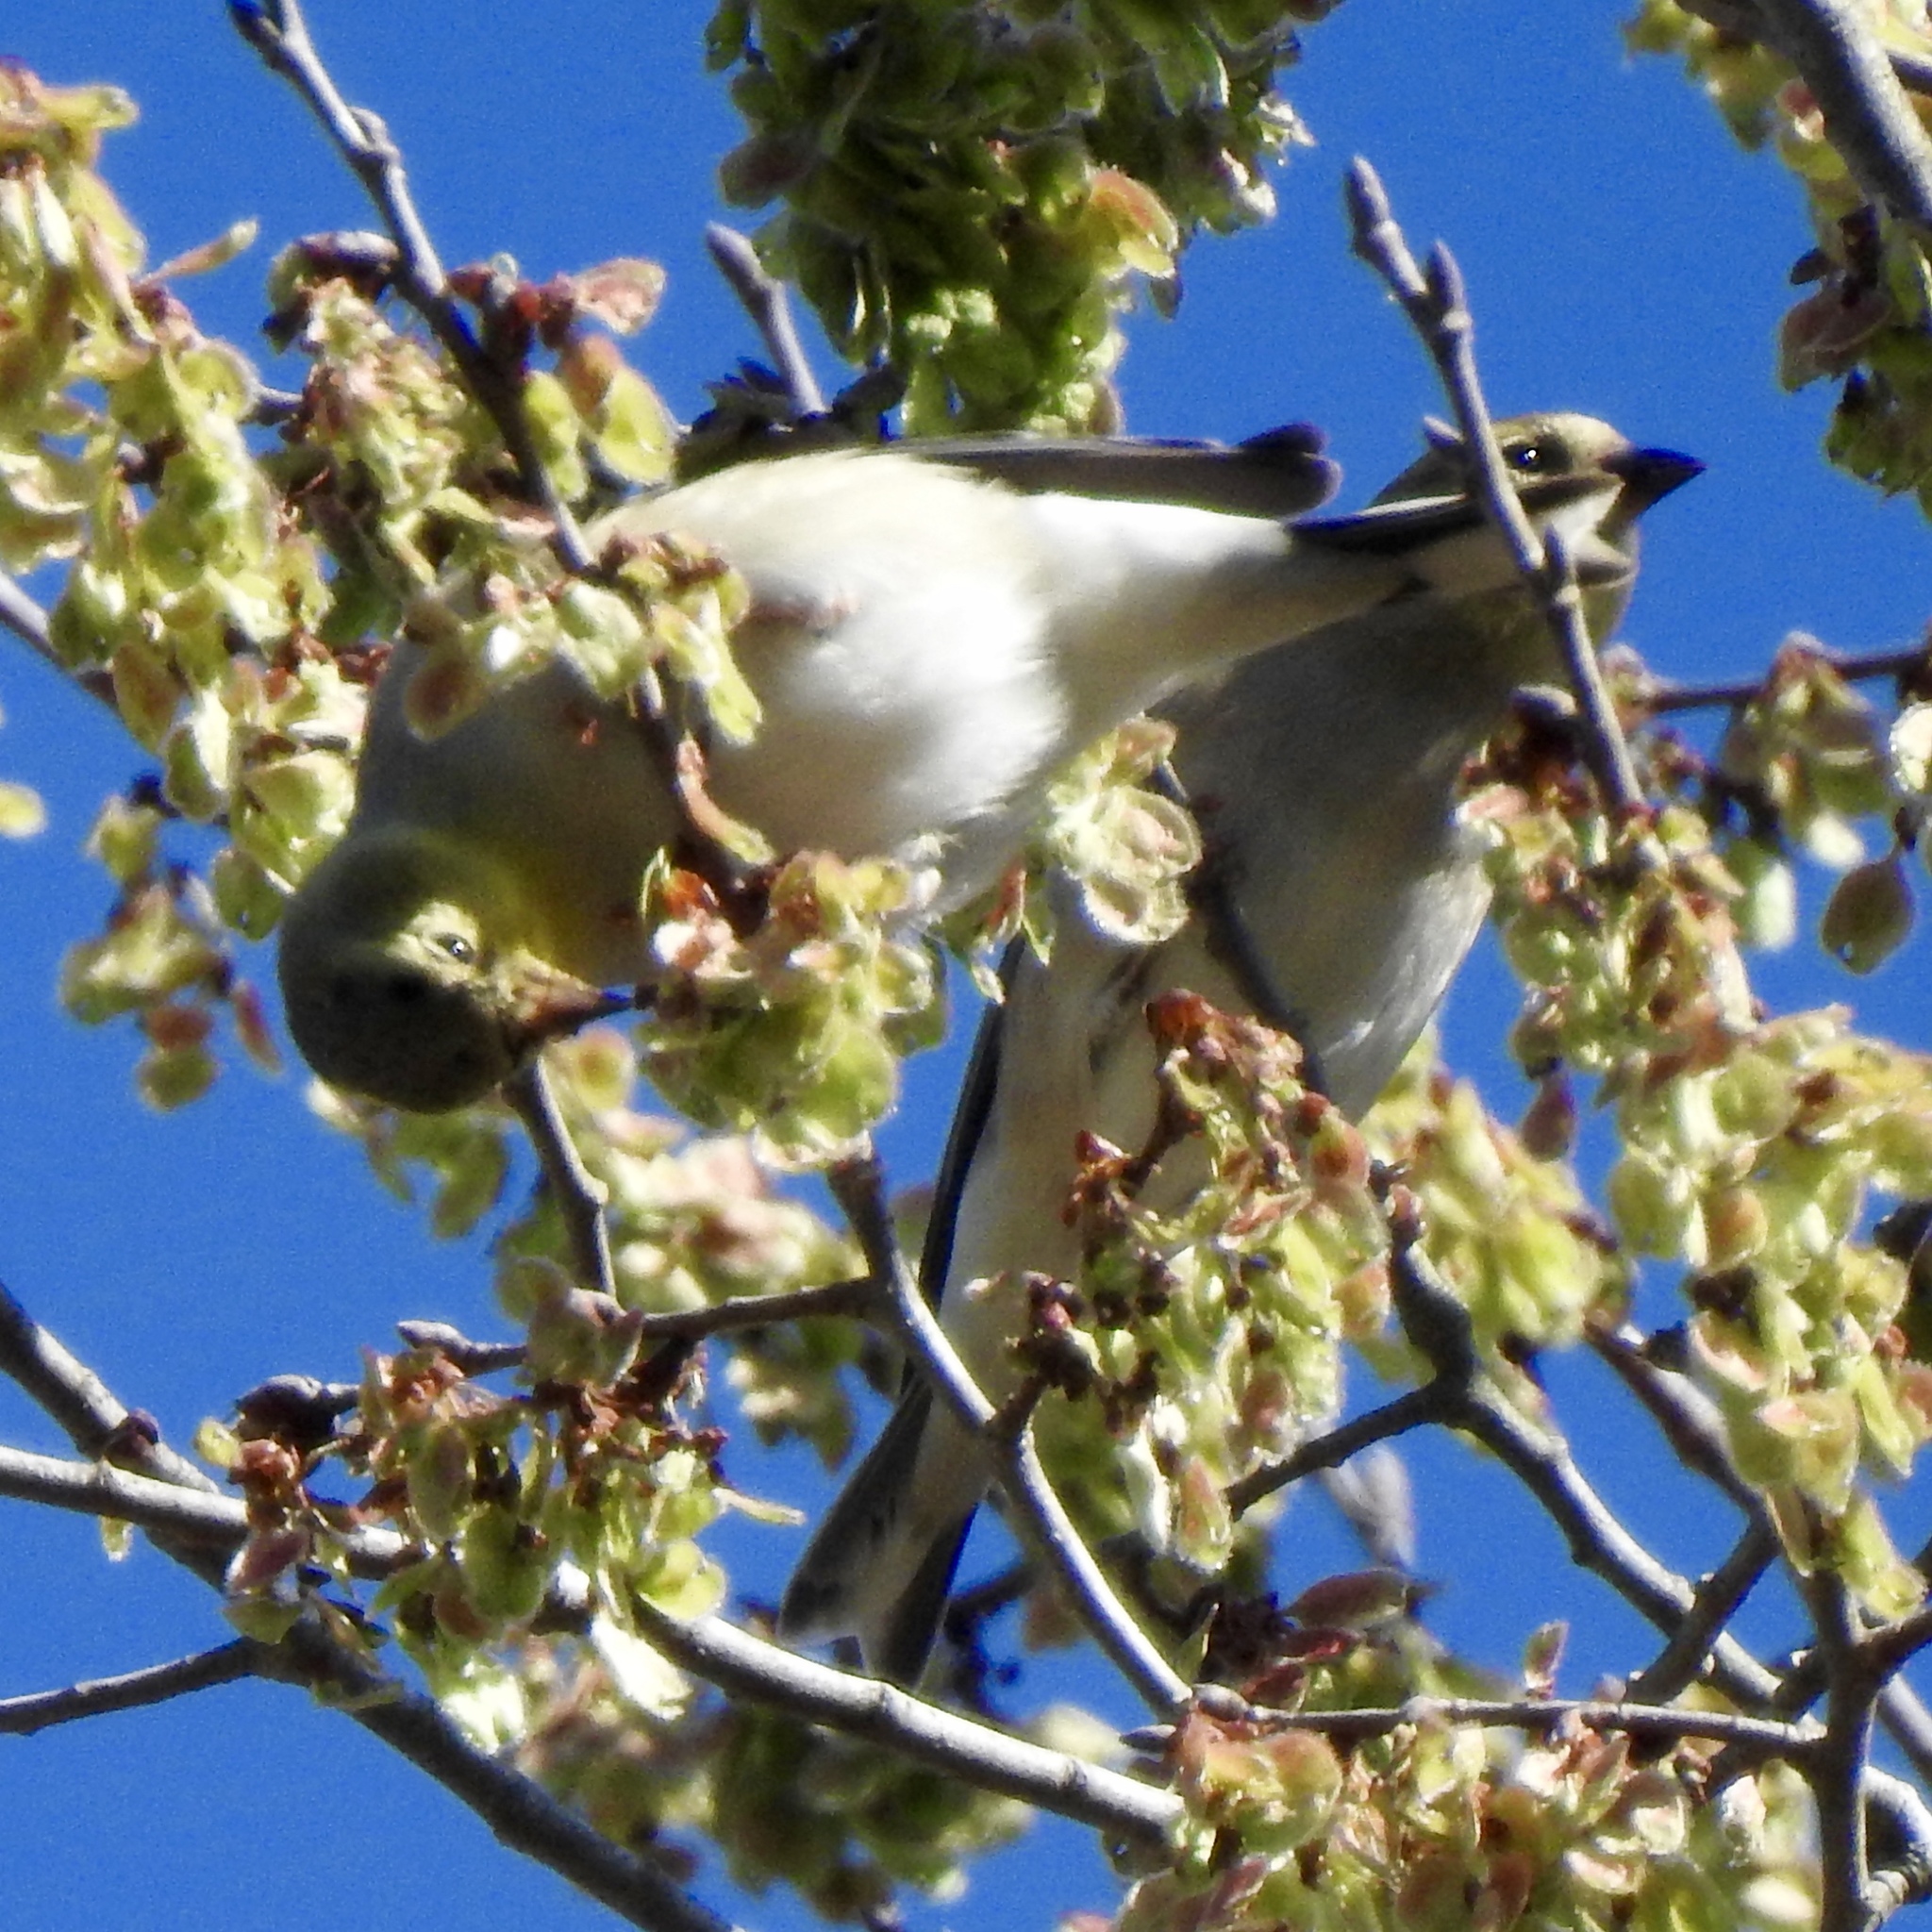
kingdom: Animalia
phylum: Chordata
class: Aves
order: Passeriformes
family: Fringillidae
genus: Spinus
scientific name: Spinus tristis
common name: American goldfinch
